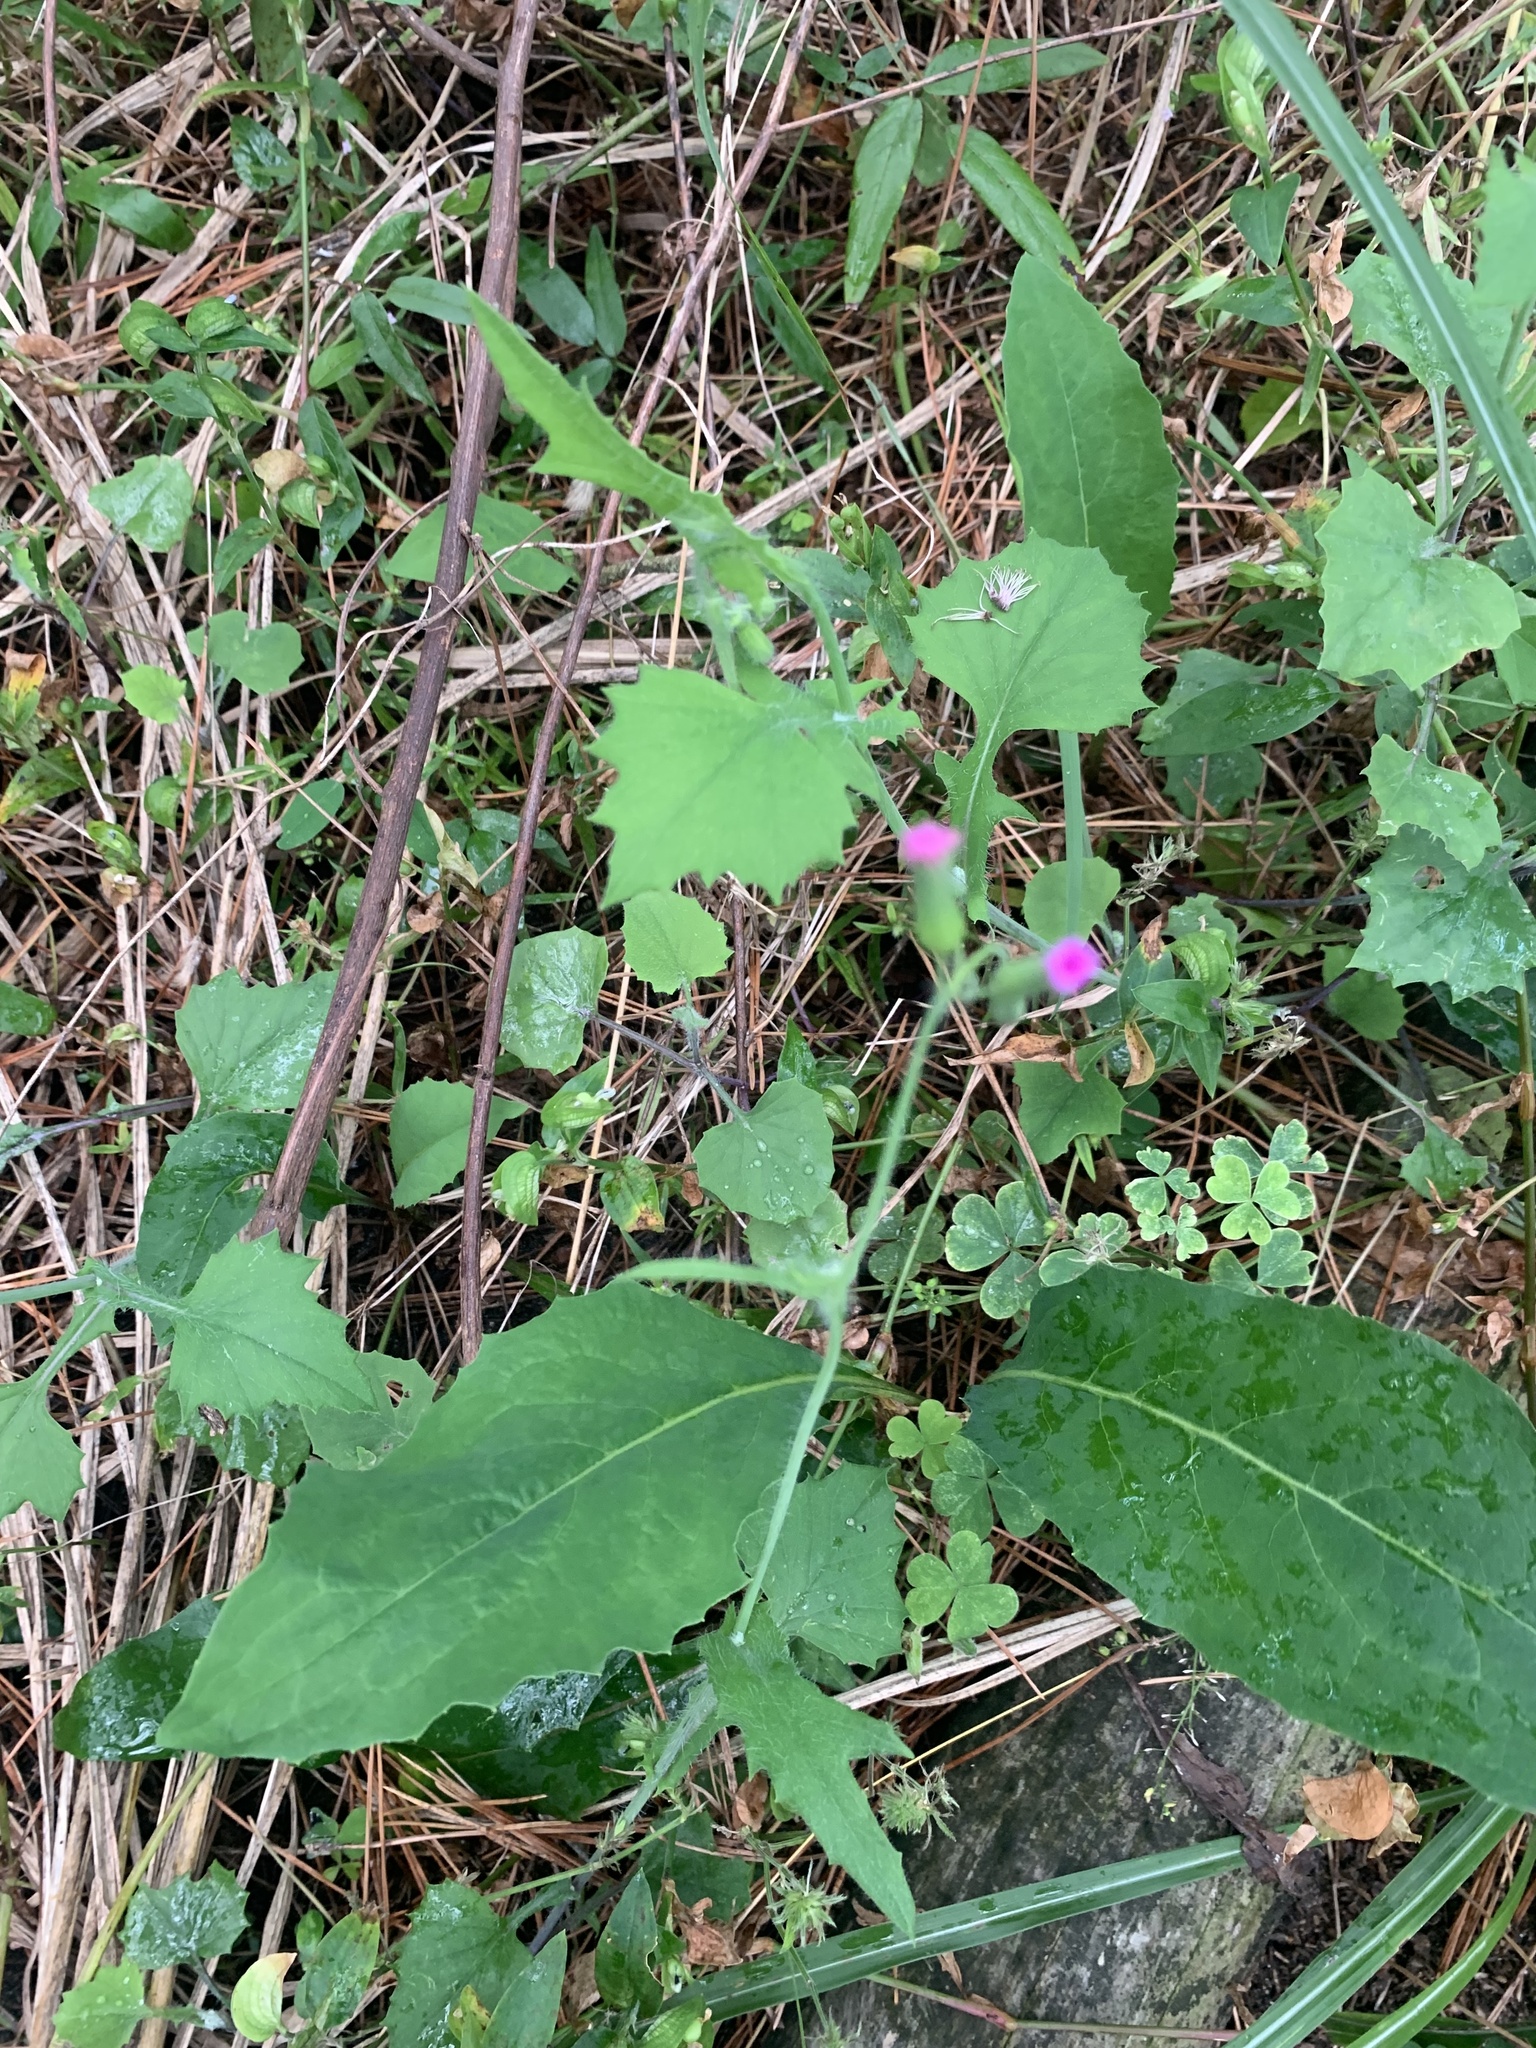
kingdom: Plantae
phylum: Tracheophyta
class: Magnoliopsida
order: Asterales
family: Asteraceae
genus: Emilia
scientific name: Emilia sonchifolia
